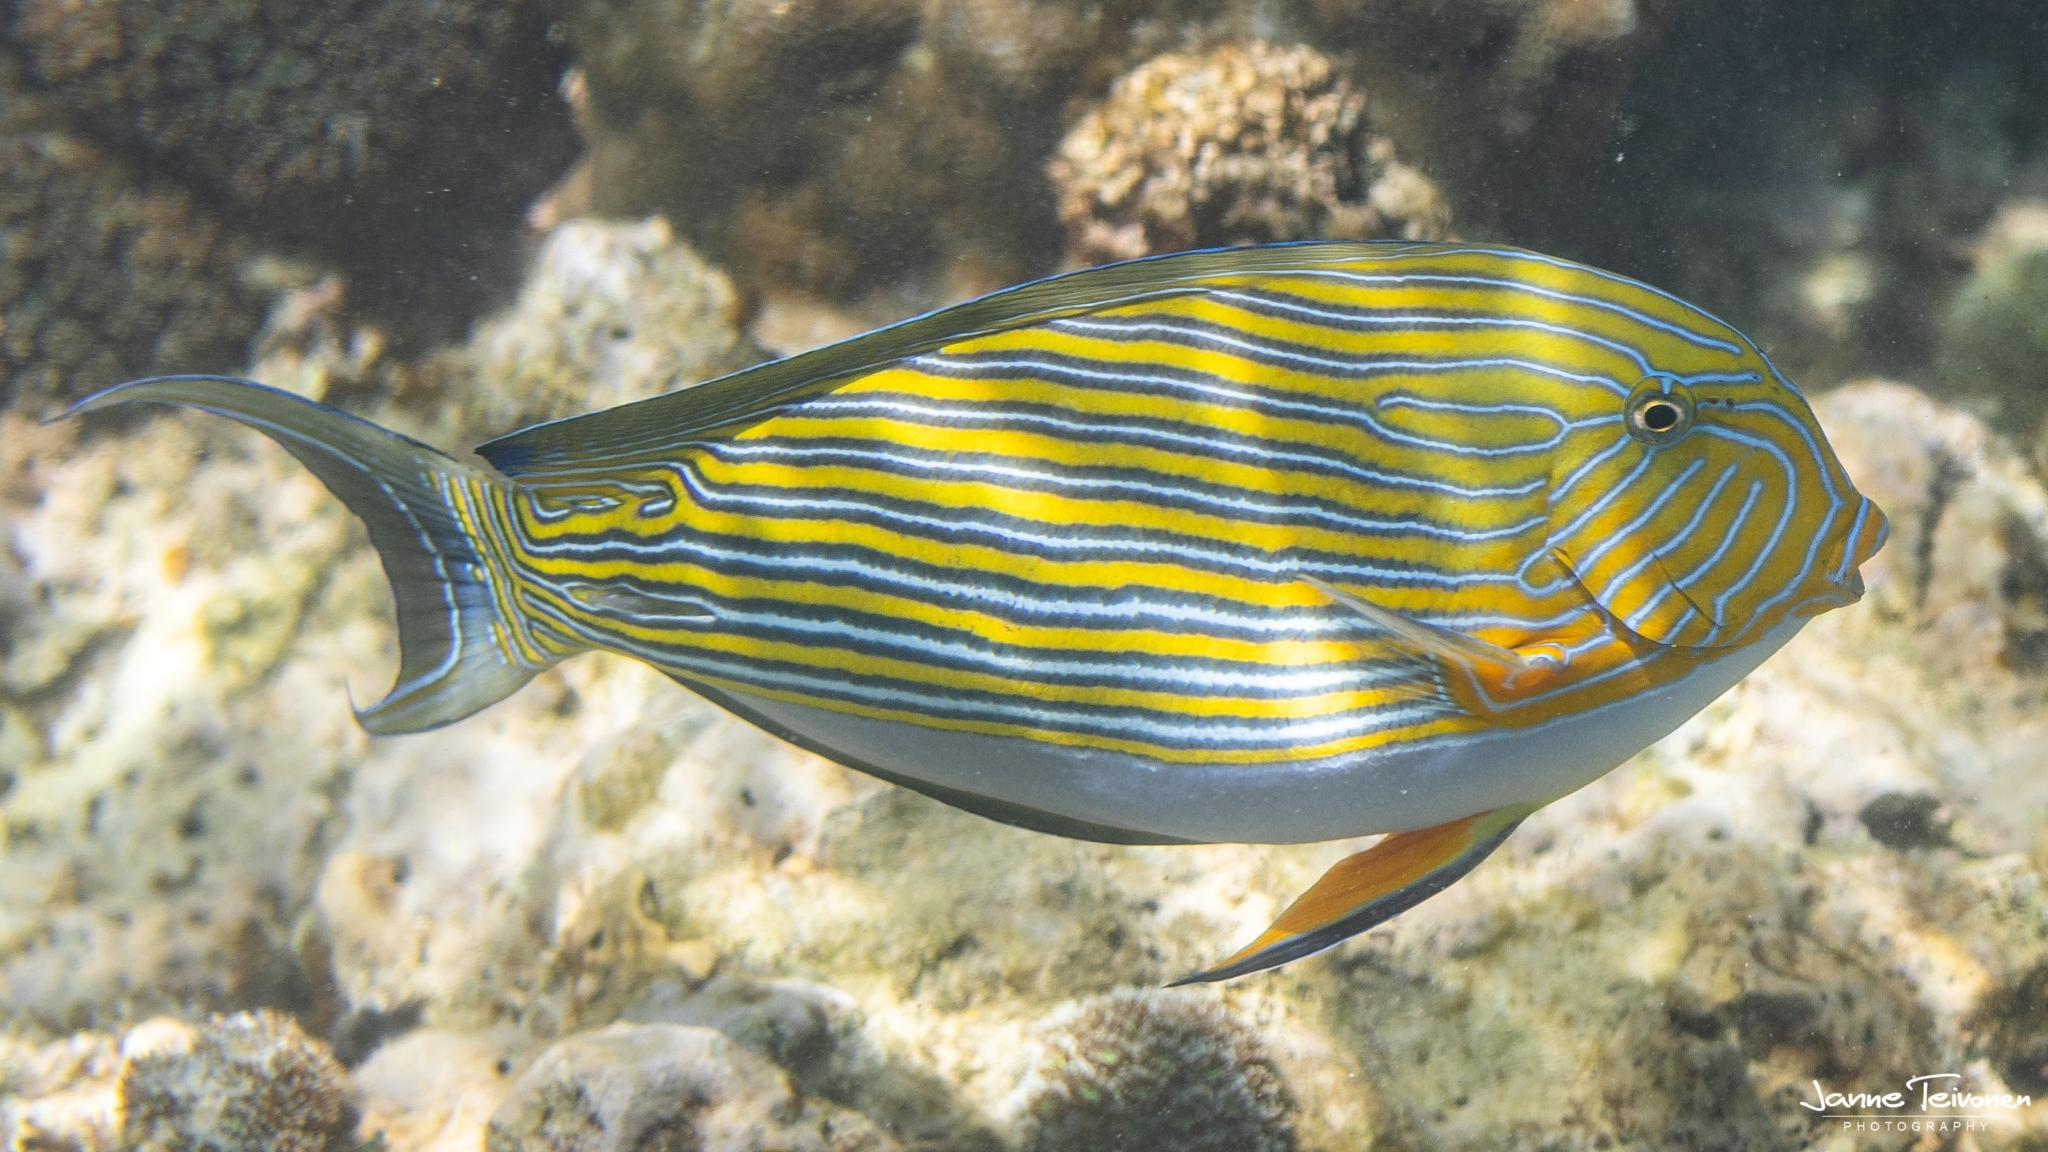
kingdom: Animalia
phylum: Chordata
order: Perciformes
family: Acanthuridae
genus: Acanthurus
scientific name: Acanthurus lineatus
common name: Striped surgeonfish
